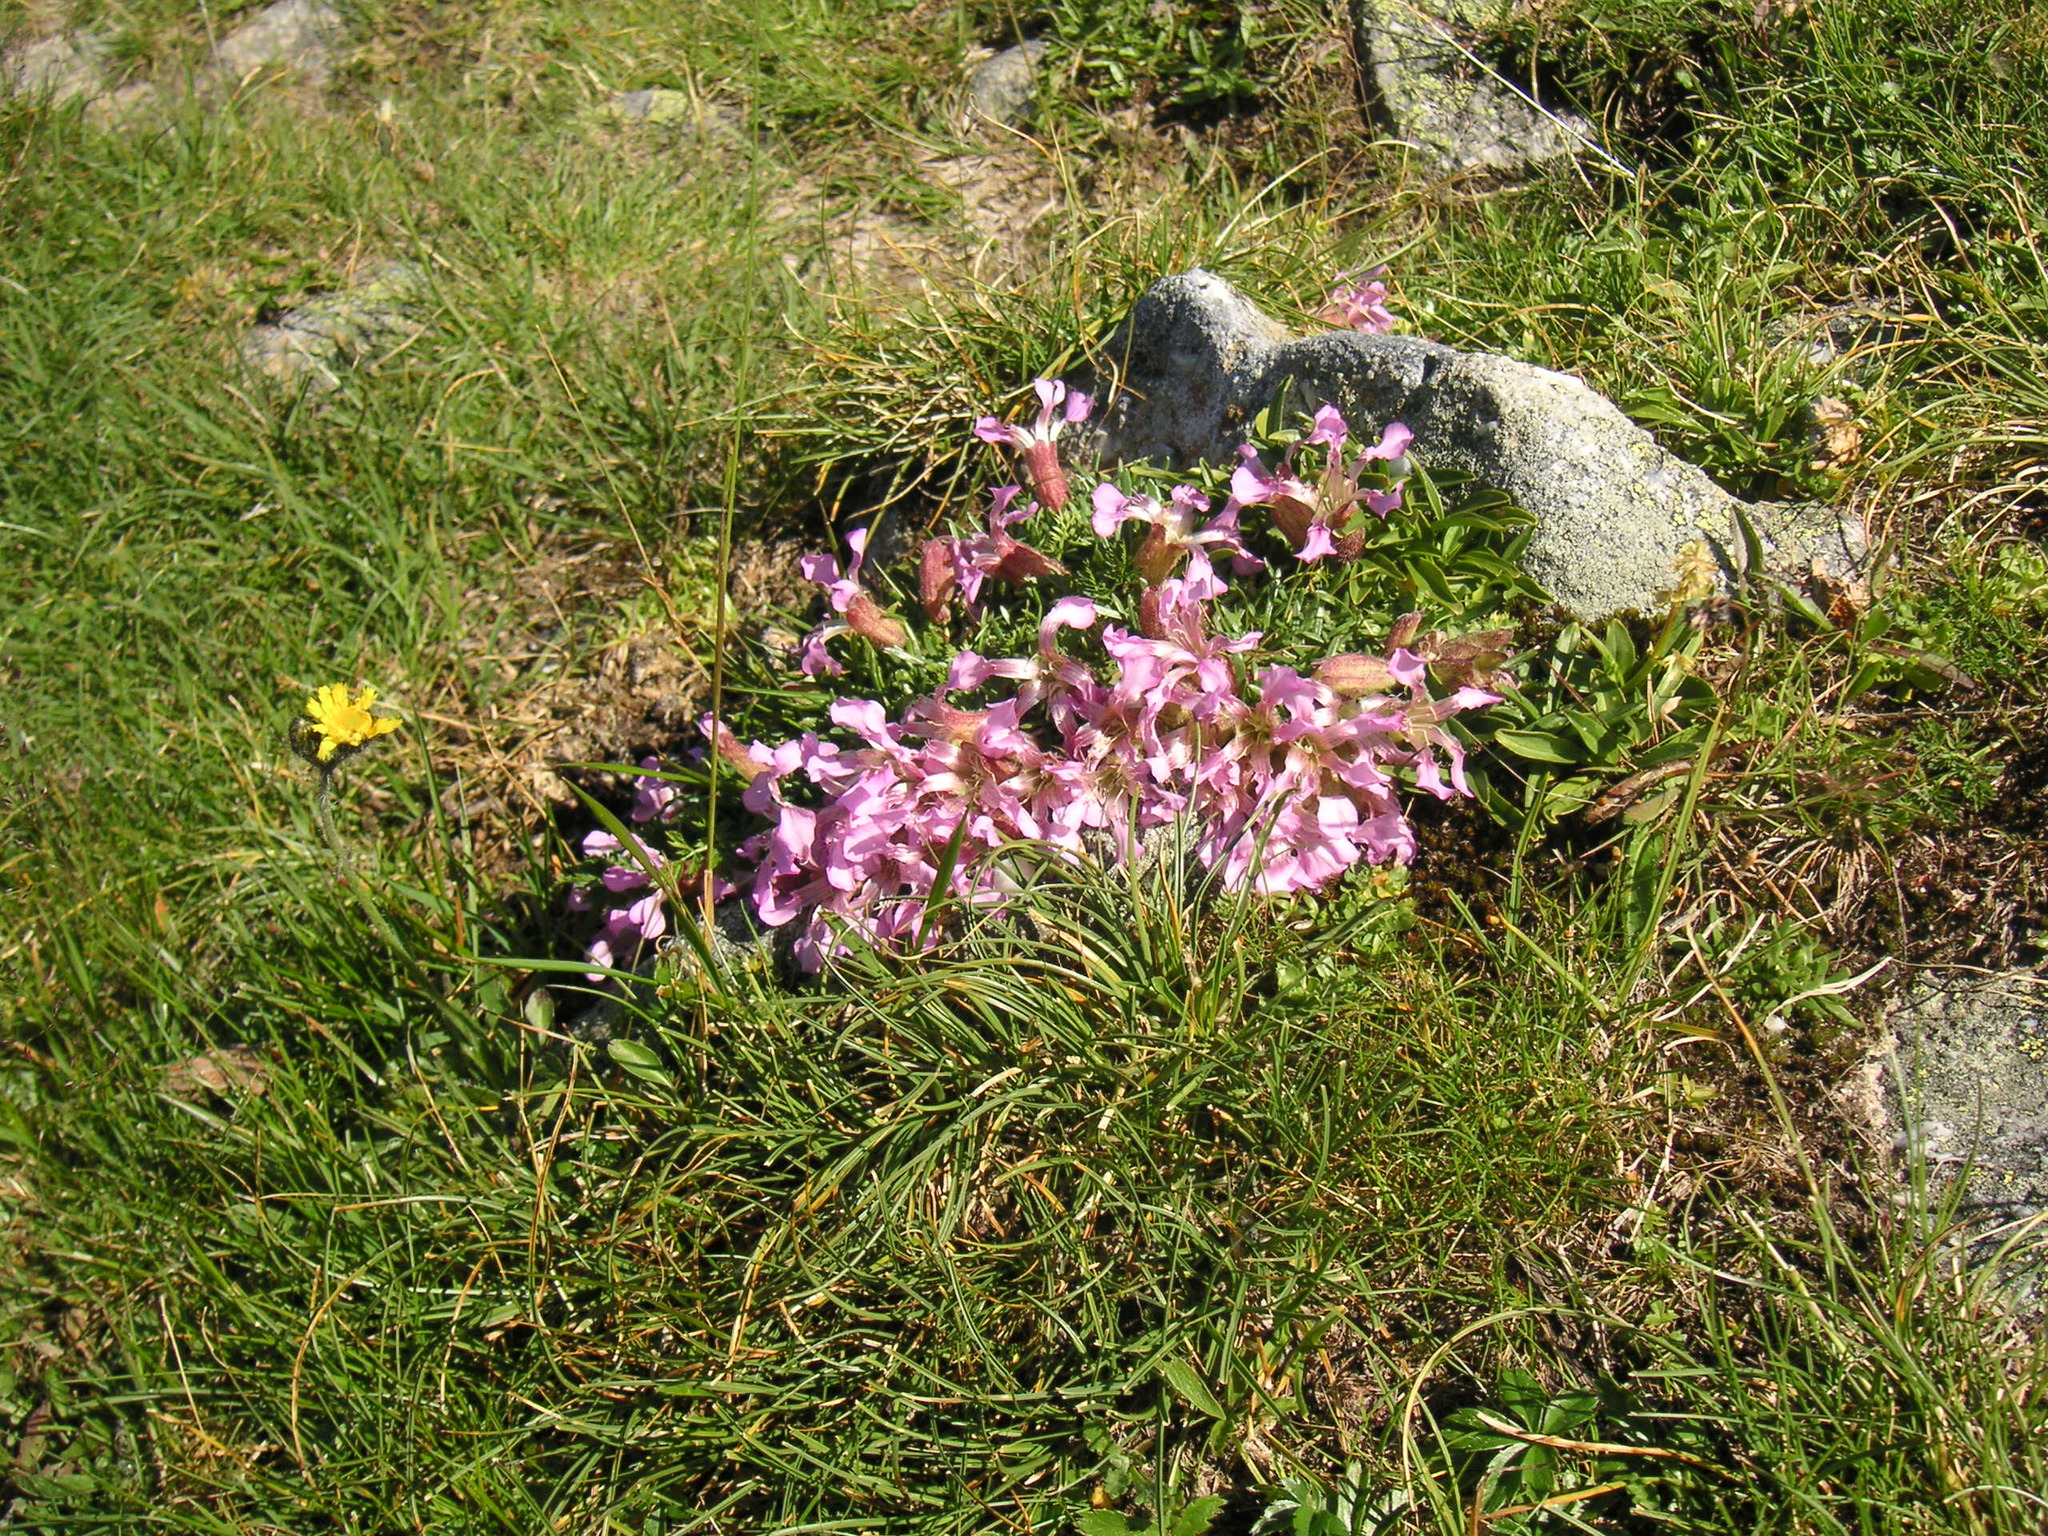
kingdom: Plantae
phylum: Tracheophyta
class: Magnoliopsida
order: Caryophyllales
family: Caryophyllaceae
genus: Saponaria
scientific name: Saponaria pumila
